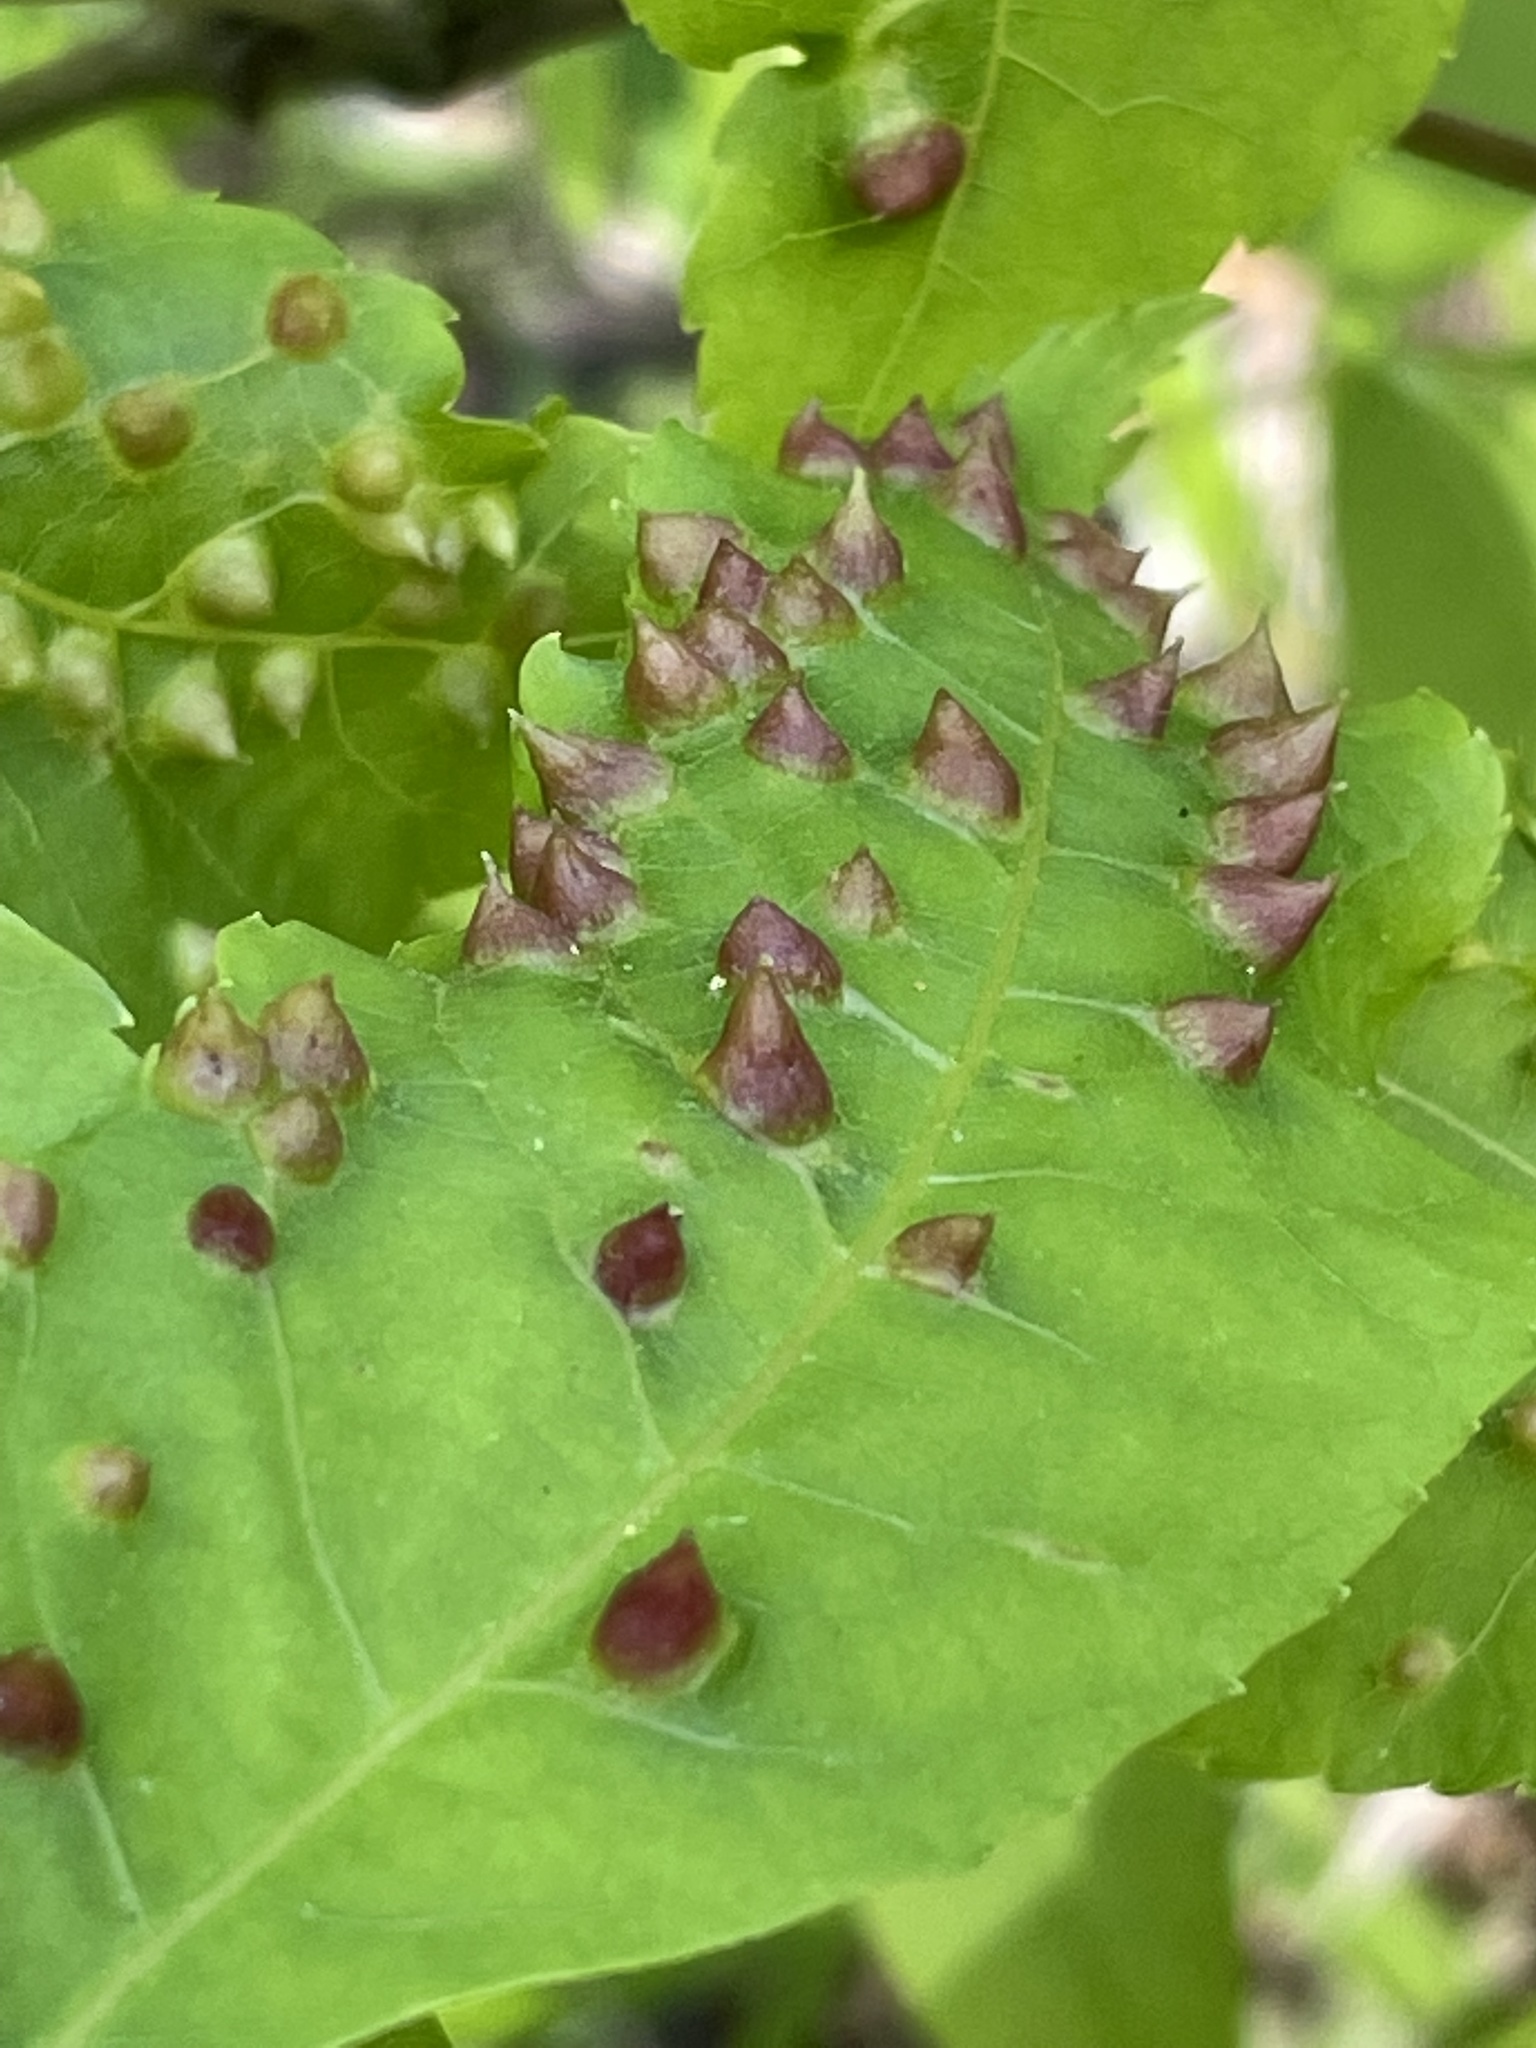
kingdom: Animalia
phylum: Arthropoda
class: Insecta
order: Hemiptera
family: Phylloxeridae
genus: Phylloxera
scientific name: Phylloxera caryaefallax
